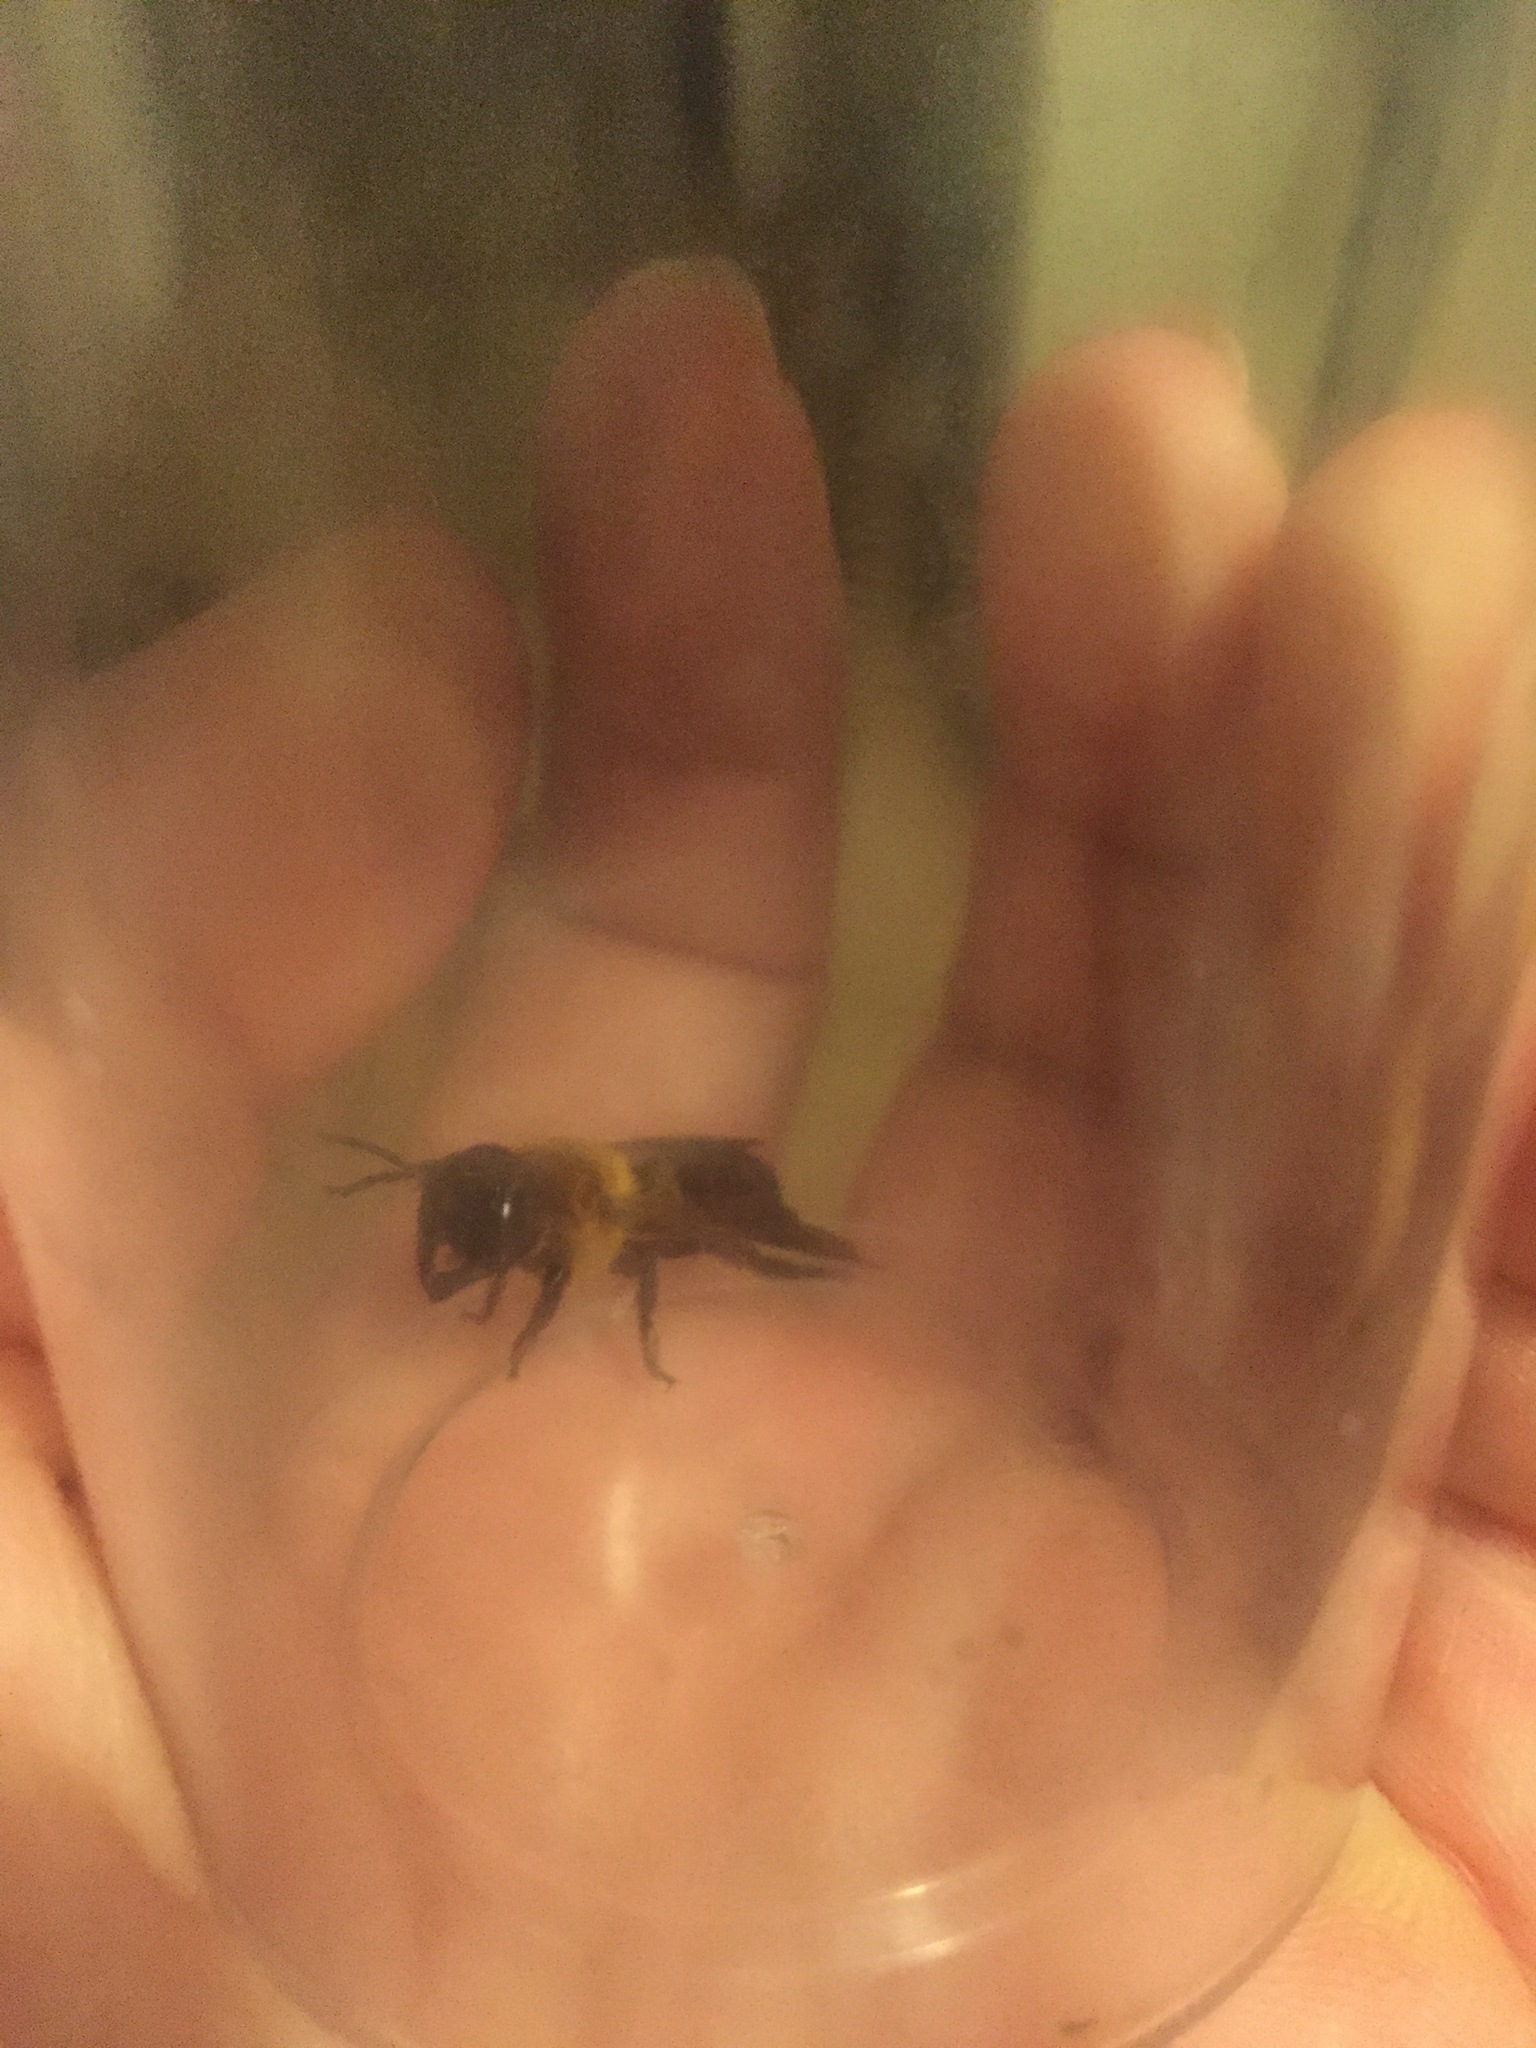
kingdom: Animalia
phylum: Arthropoda
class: Insecta
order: Hymenoptera
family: Megachilidae
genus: Megachile
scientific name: Megachile sculpturalis
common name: Sculptured resin bee
